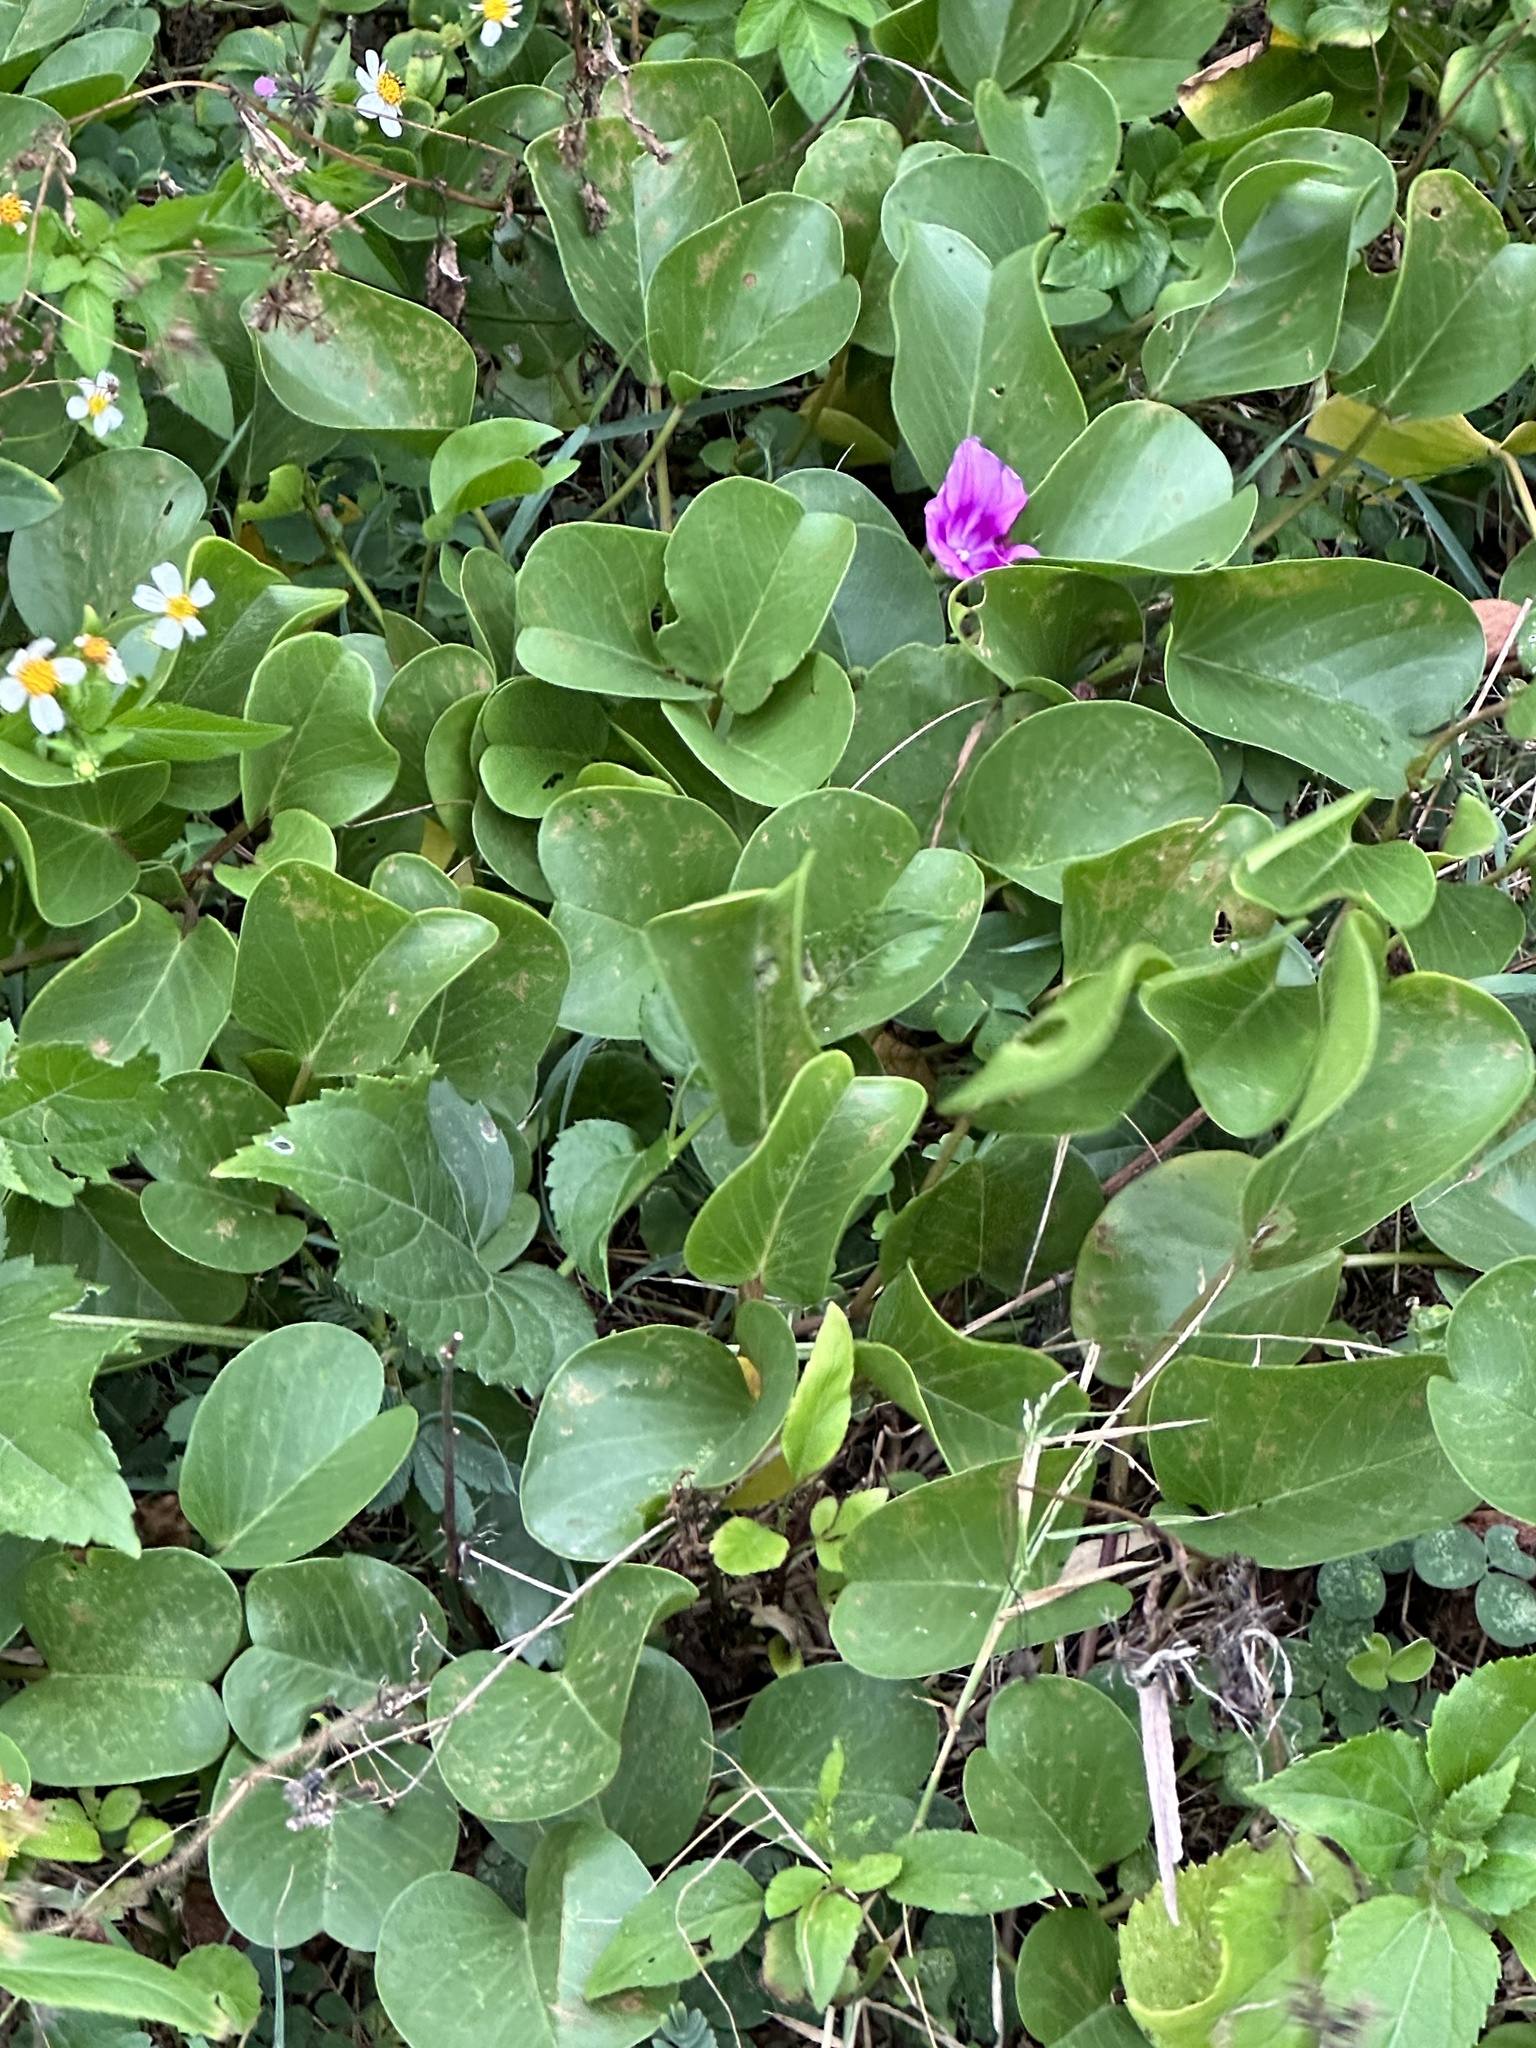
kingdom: Plantae
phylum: Tracheophyta
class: Magnoliopsida
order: Solanales
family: Convolvulaceae
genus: Ipomoea
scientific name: Ipomoea pes-caprae
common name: Beach morning glory
